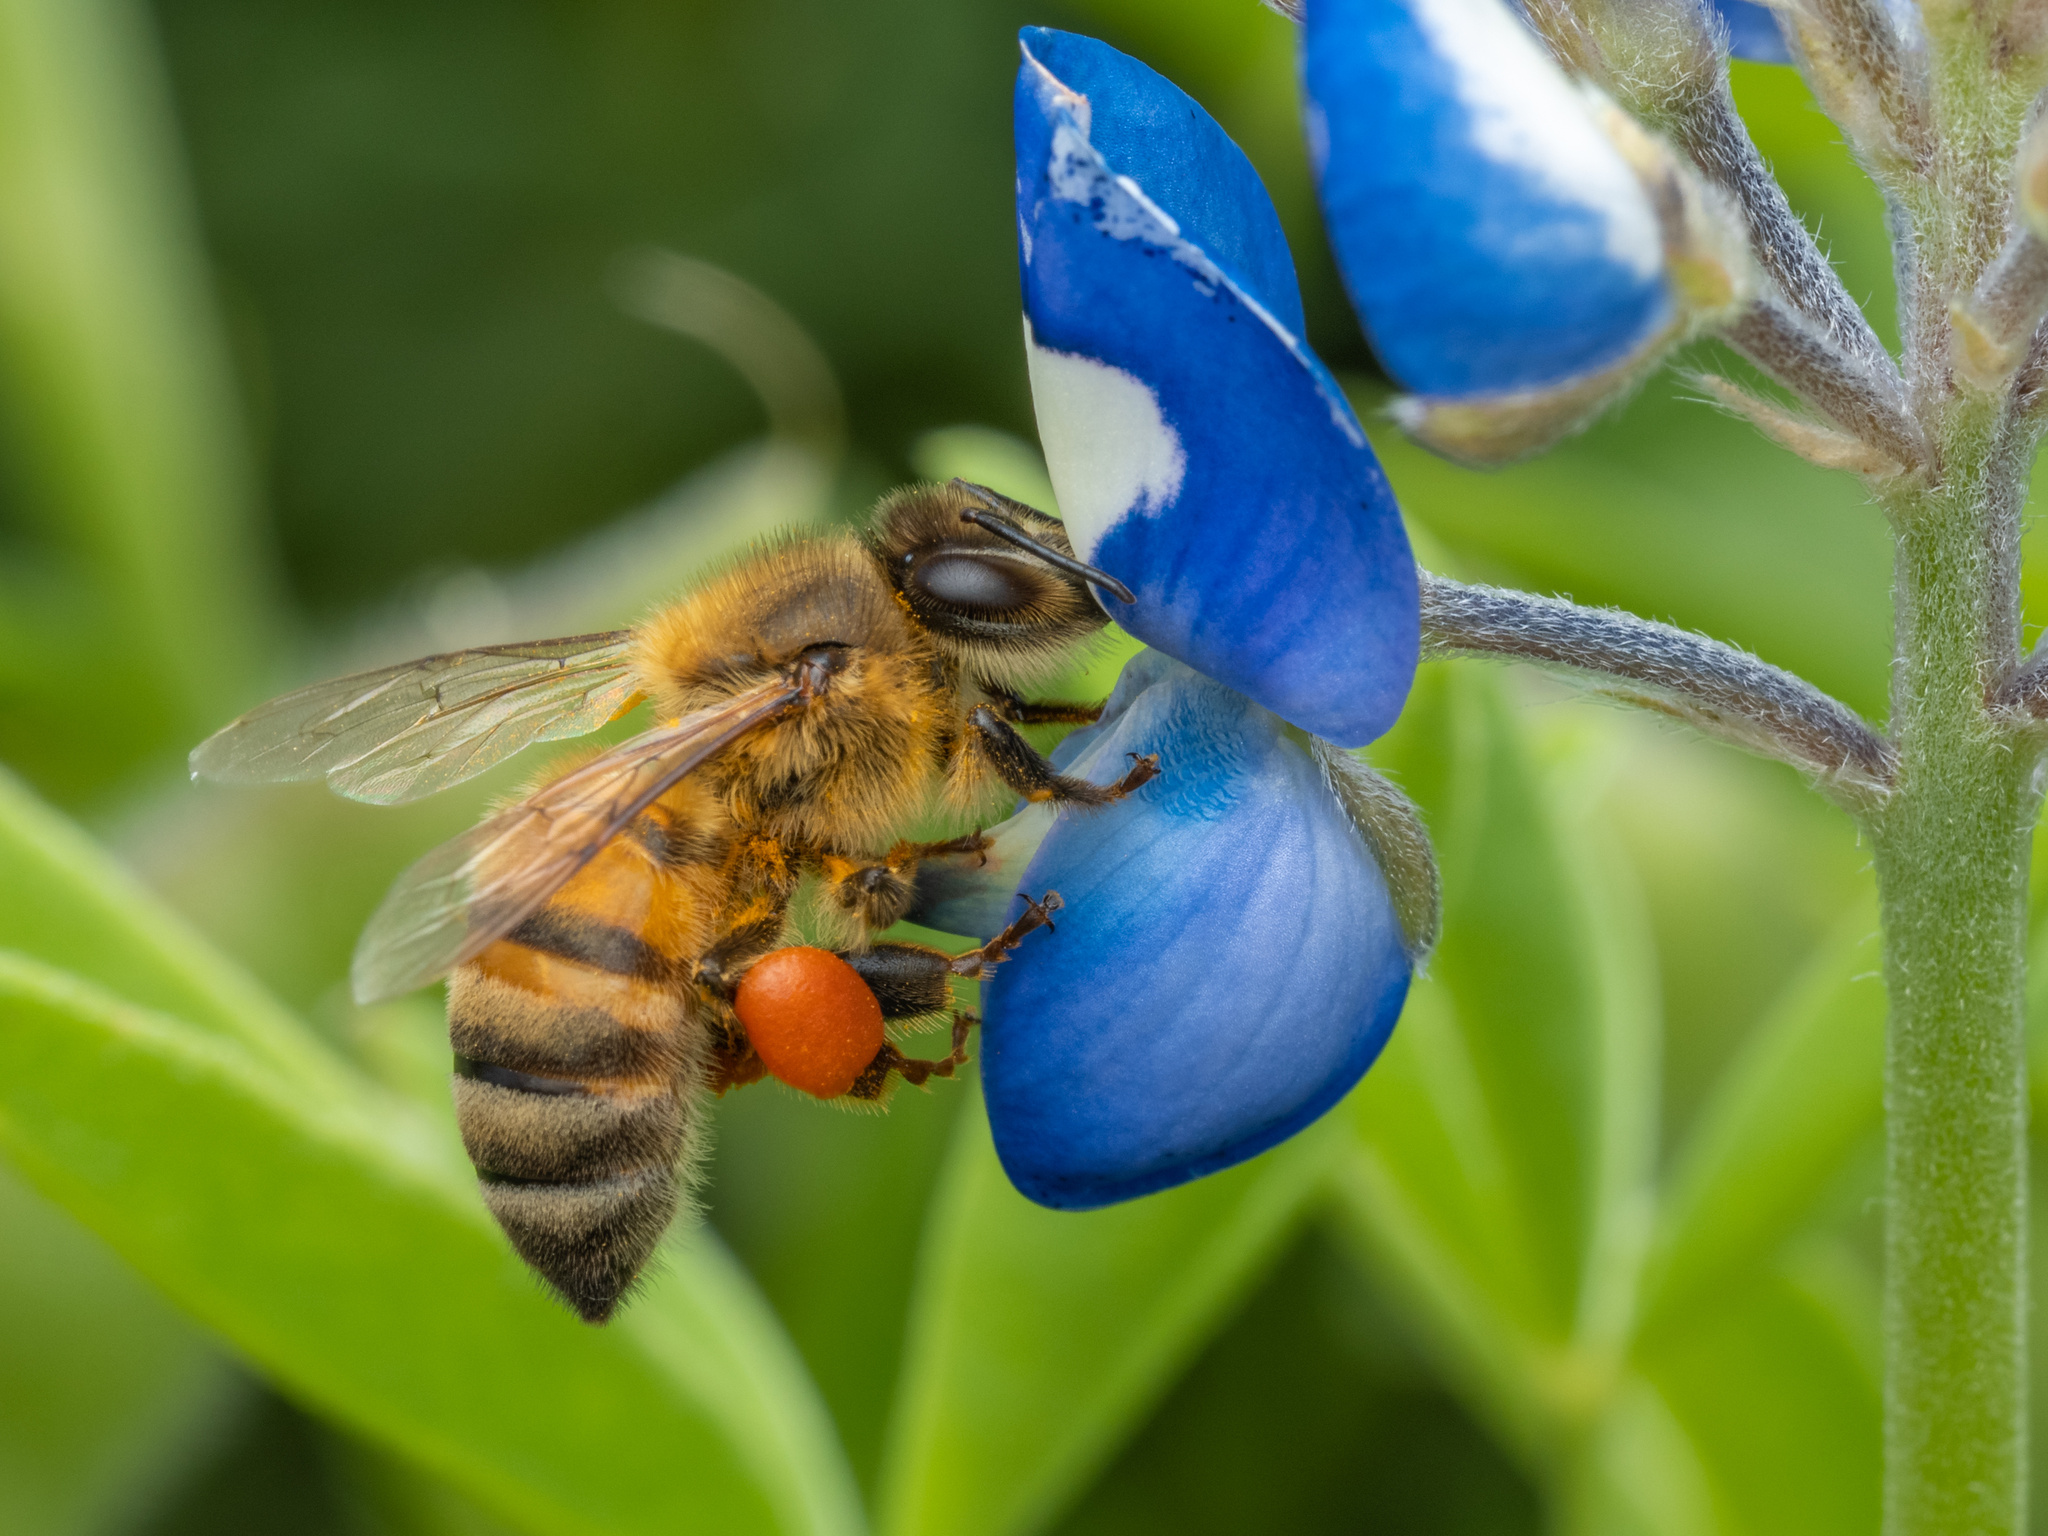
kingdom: Animalia
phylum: Arthropoda
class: Insecta
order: Hymenoptera
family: Apidae
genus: Apis
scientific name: Apis mellifera
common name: Honey bee
